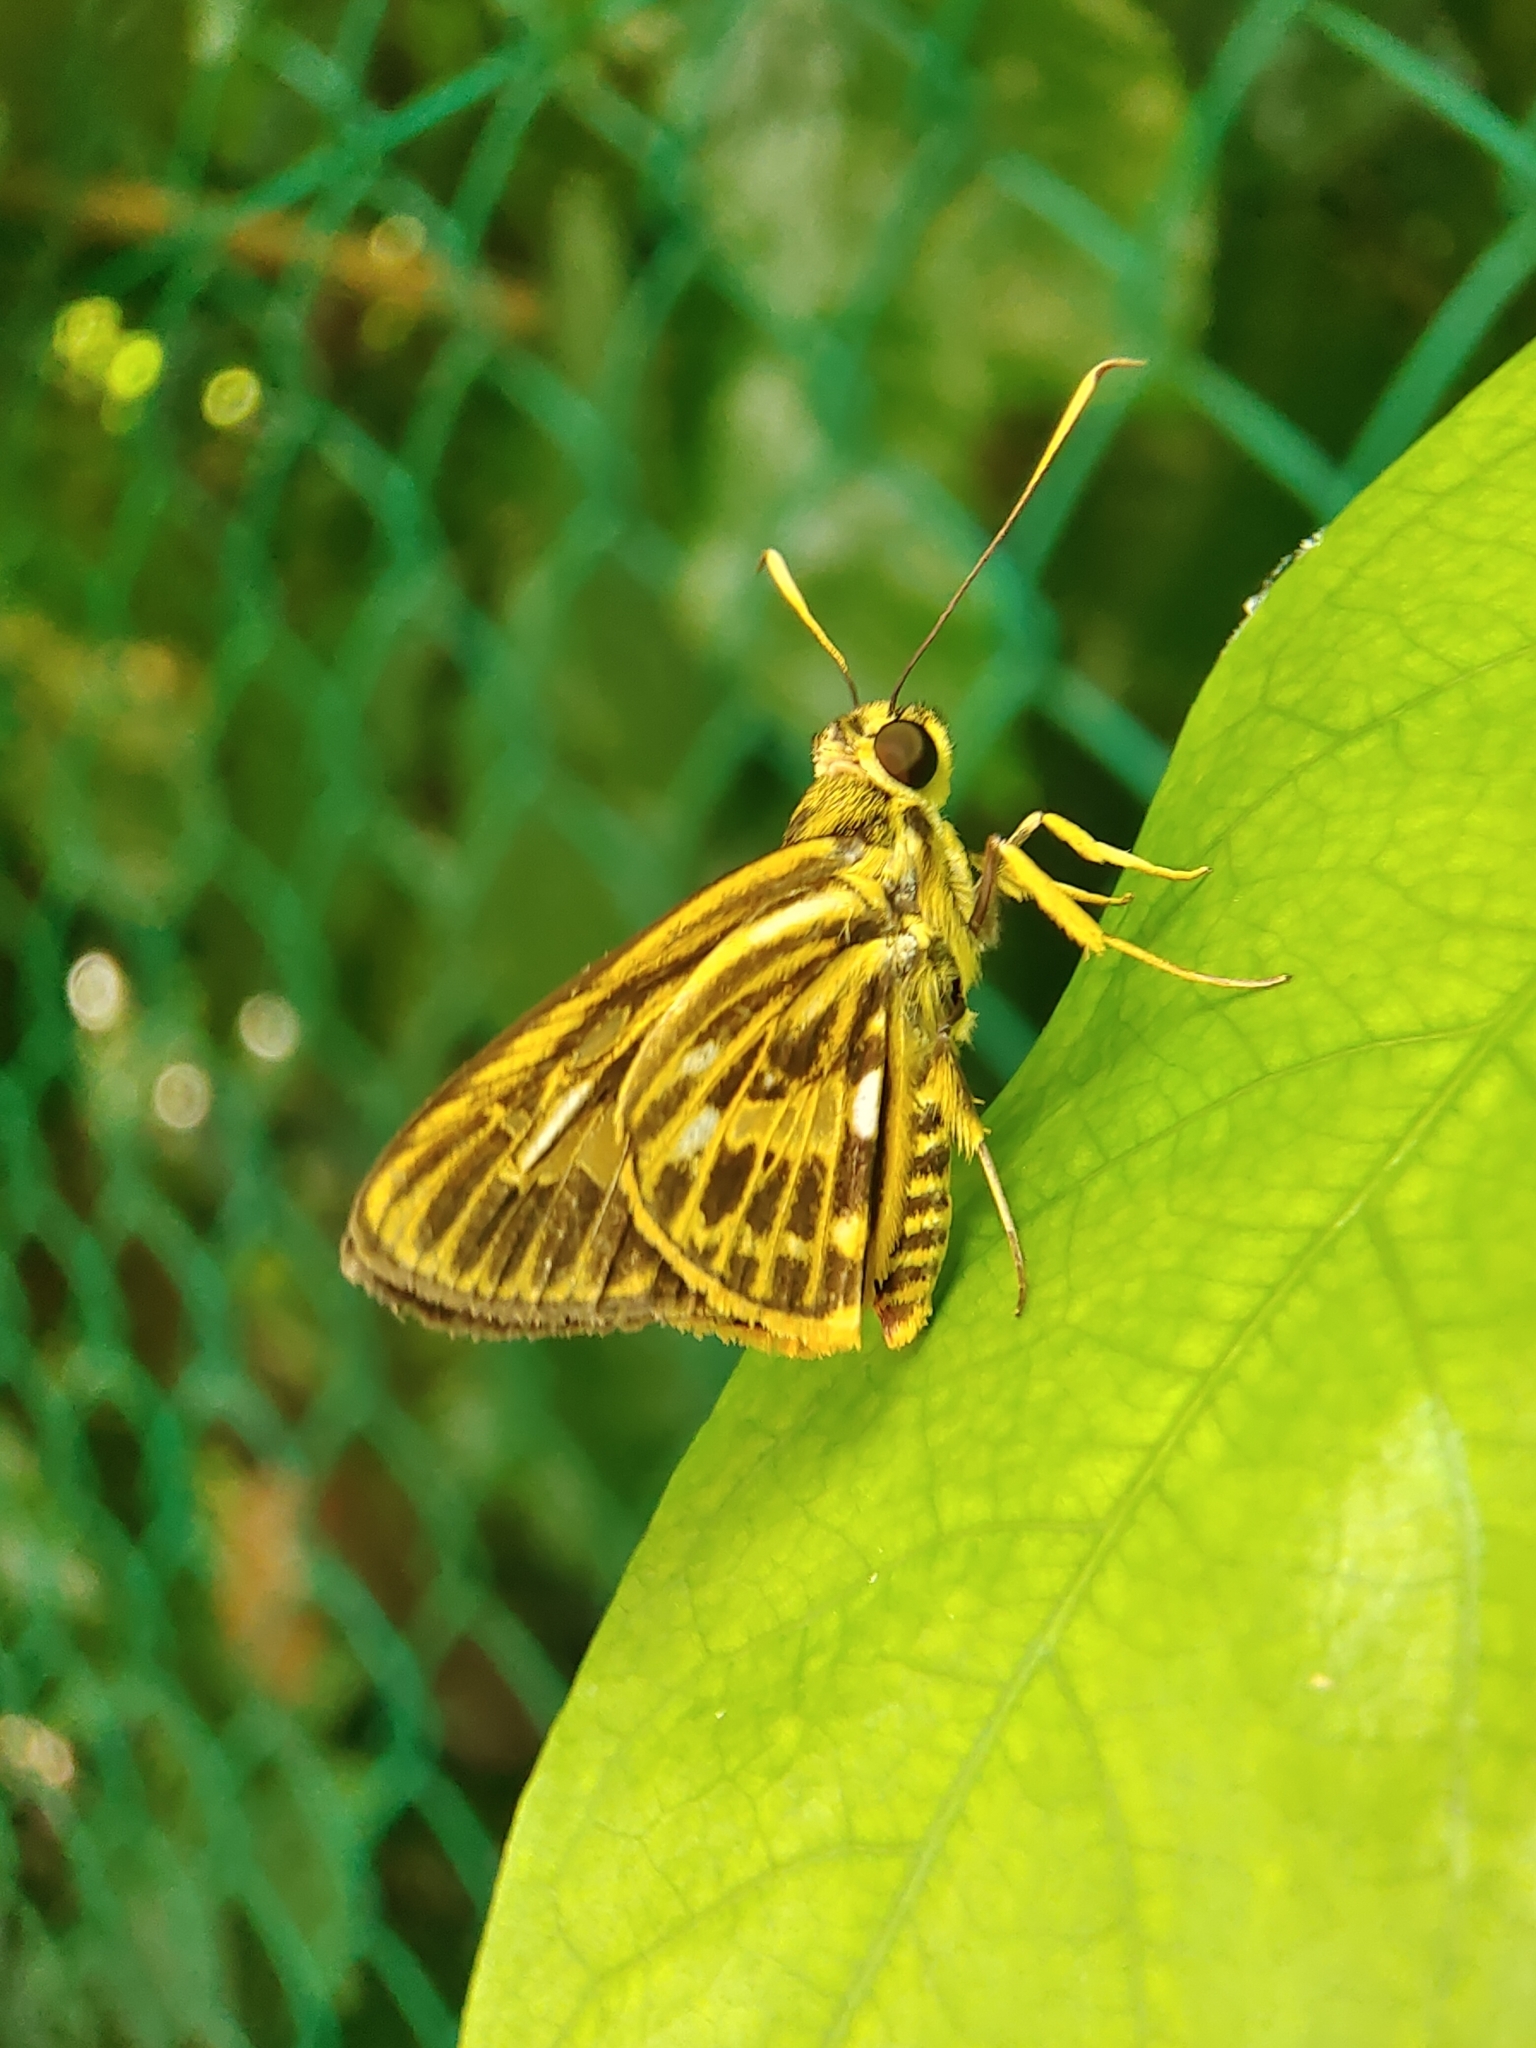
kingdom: Animalia
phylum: Arthropoda
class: Insecta
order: Lepidoptera
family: Hesperiidae
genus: Pyroneura
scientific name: Pyroneura latoia
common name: Yellow vein lancer
